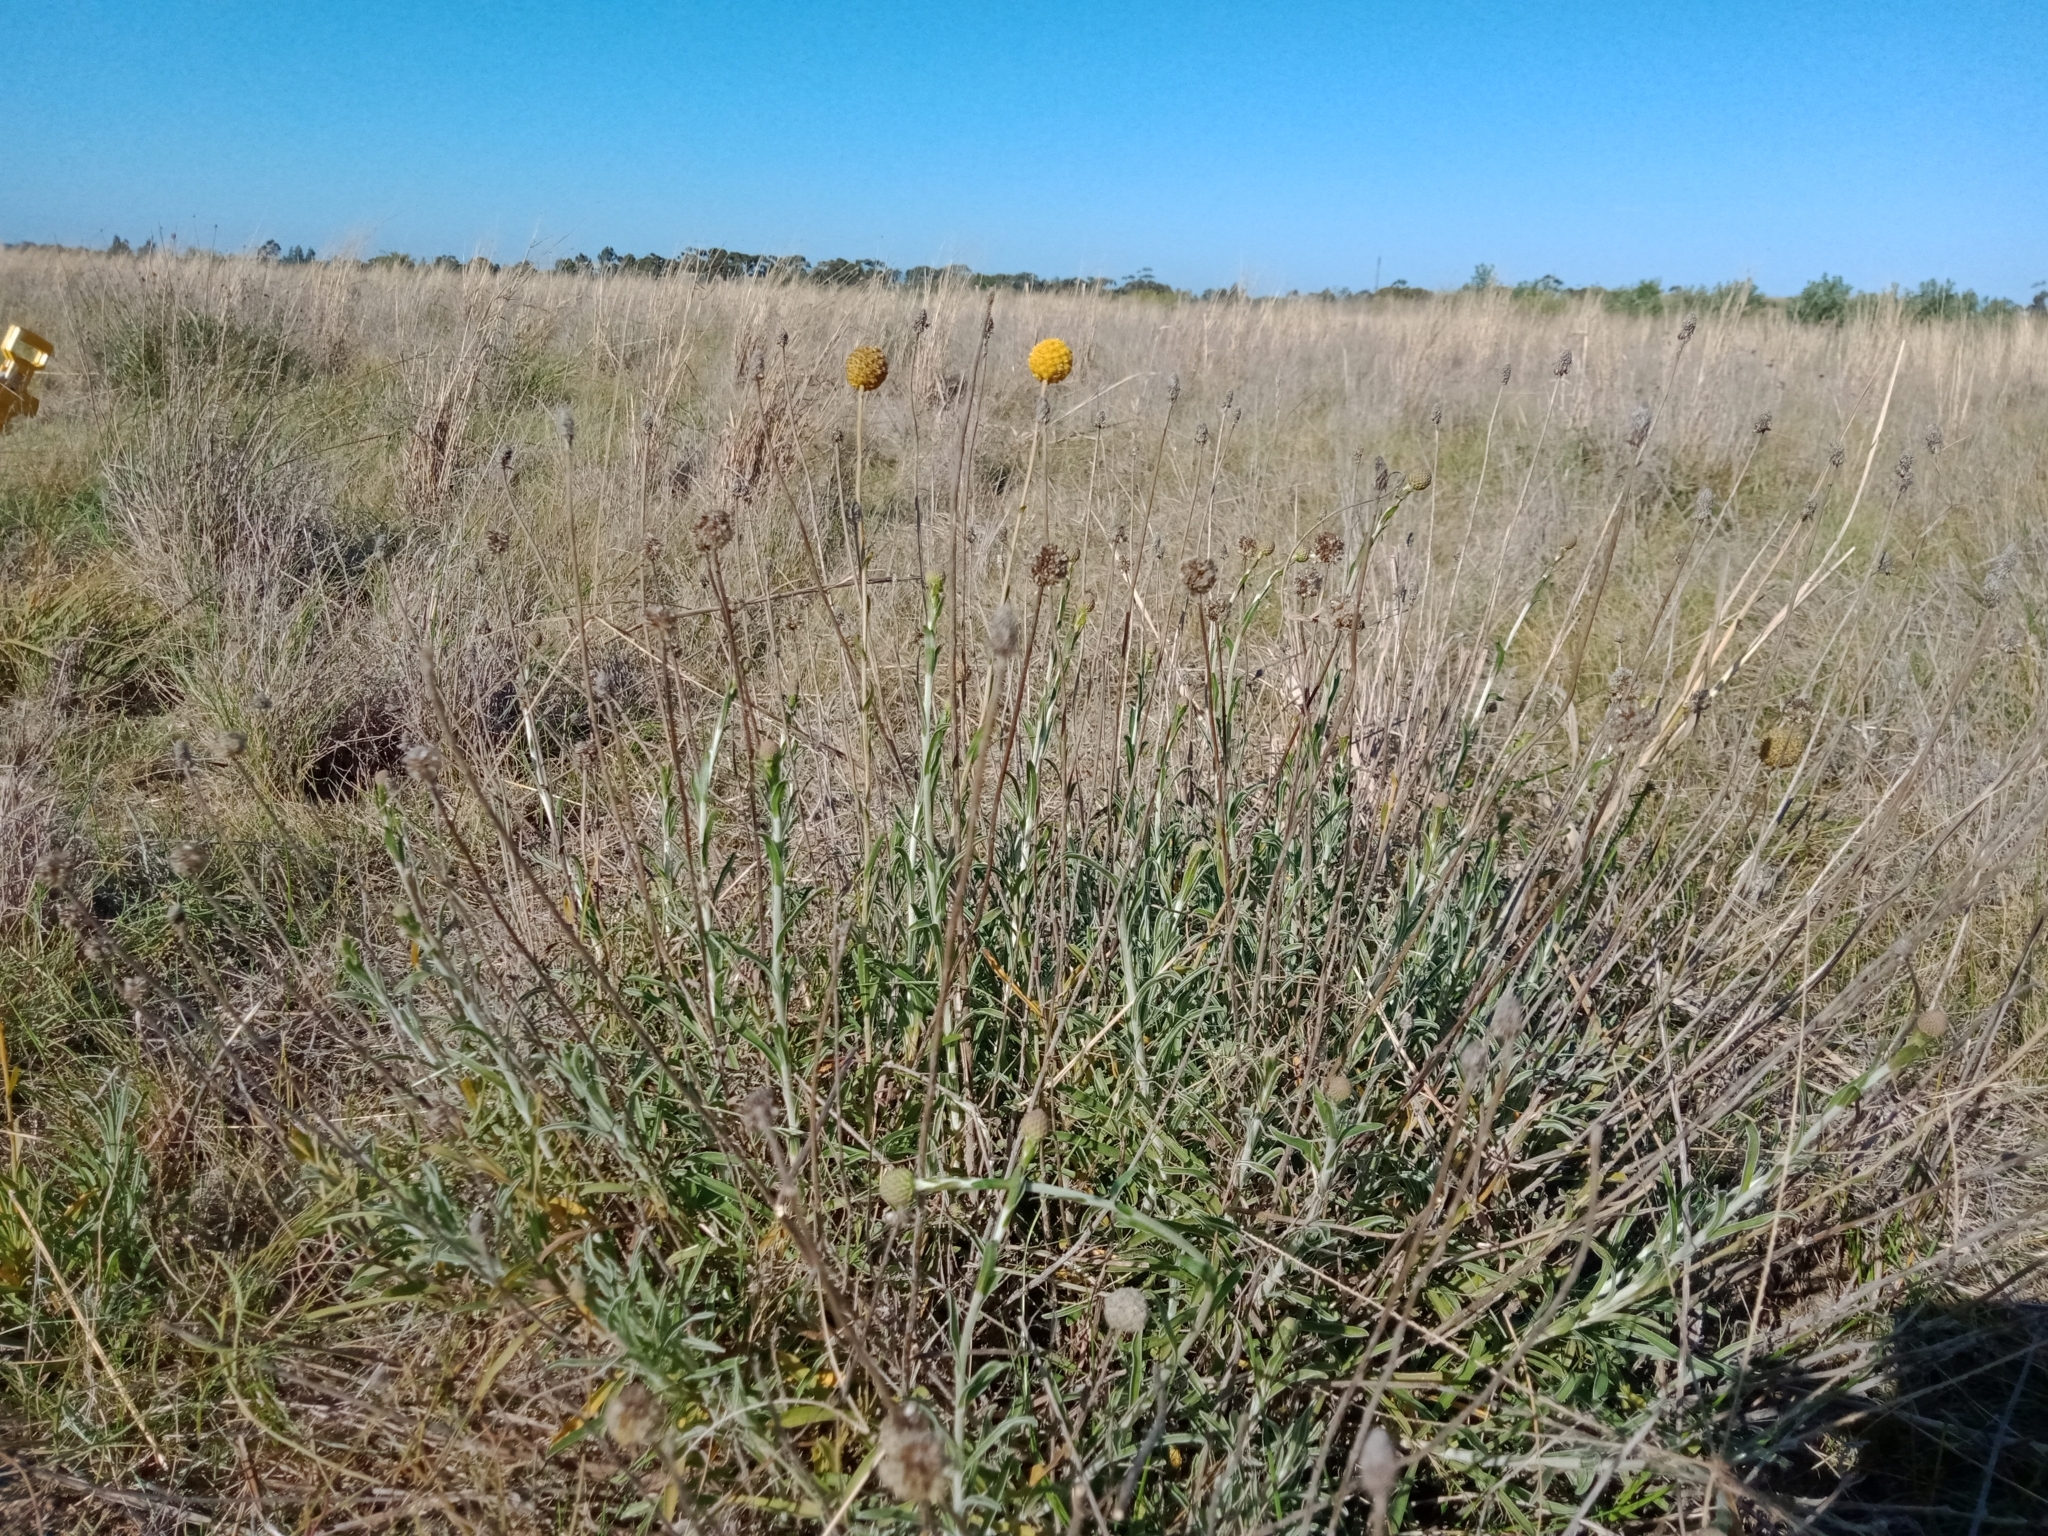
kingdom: Plantae
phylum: Tracheophyta
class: Magnoliopsida
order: Asterales
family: Asteraceae
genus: Pycnosorus
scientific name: Pycnosorus chrysanthus
